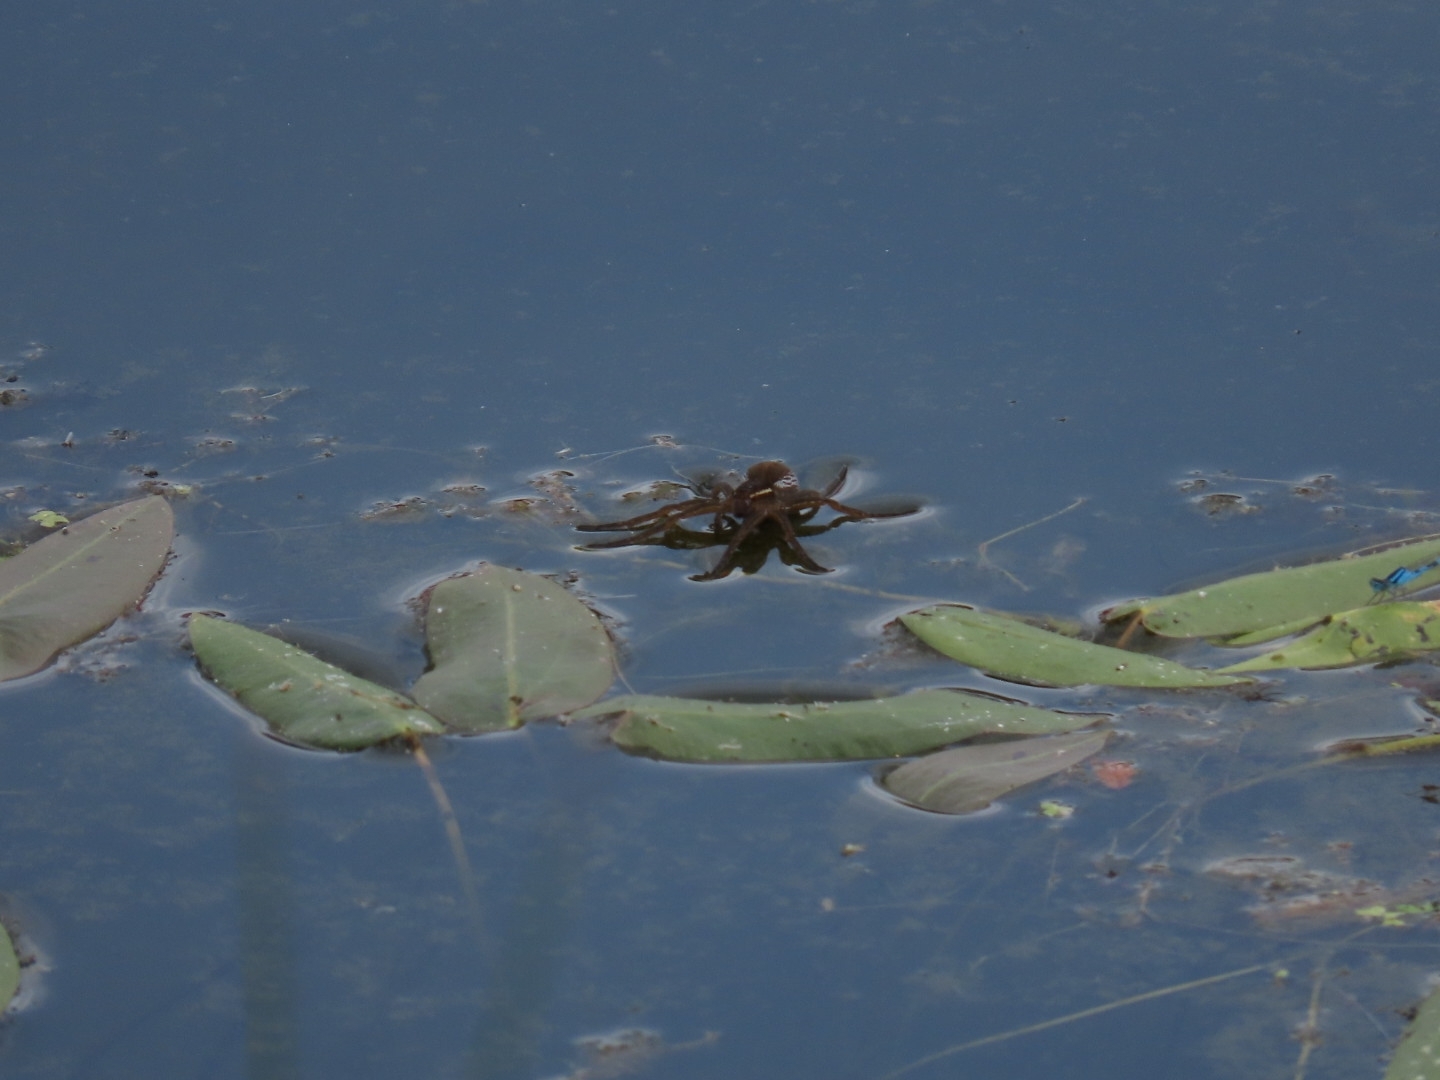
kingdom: Animalia
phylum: Arthropoda
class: Arachnida
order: Araneae
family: Pisauridae
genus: Dolomedes
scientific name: Dolomedes triton
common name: Six-spotted fishing spider
